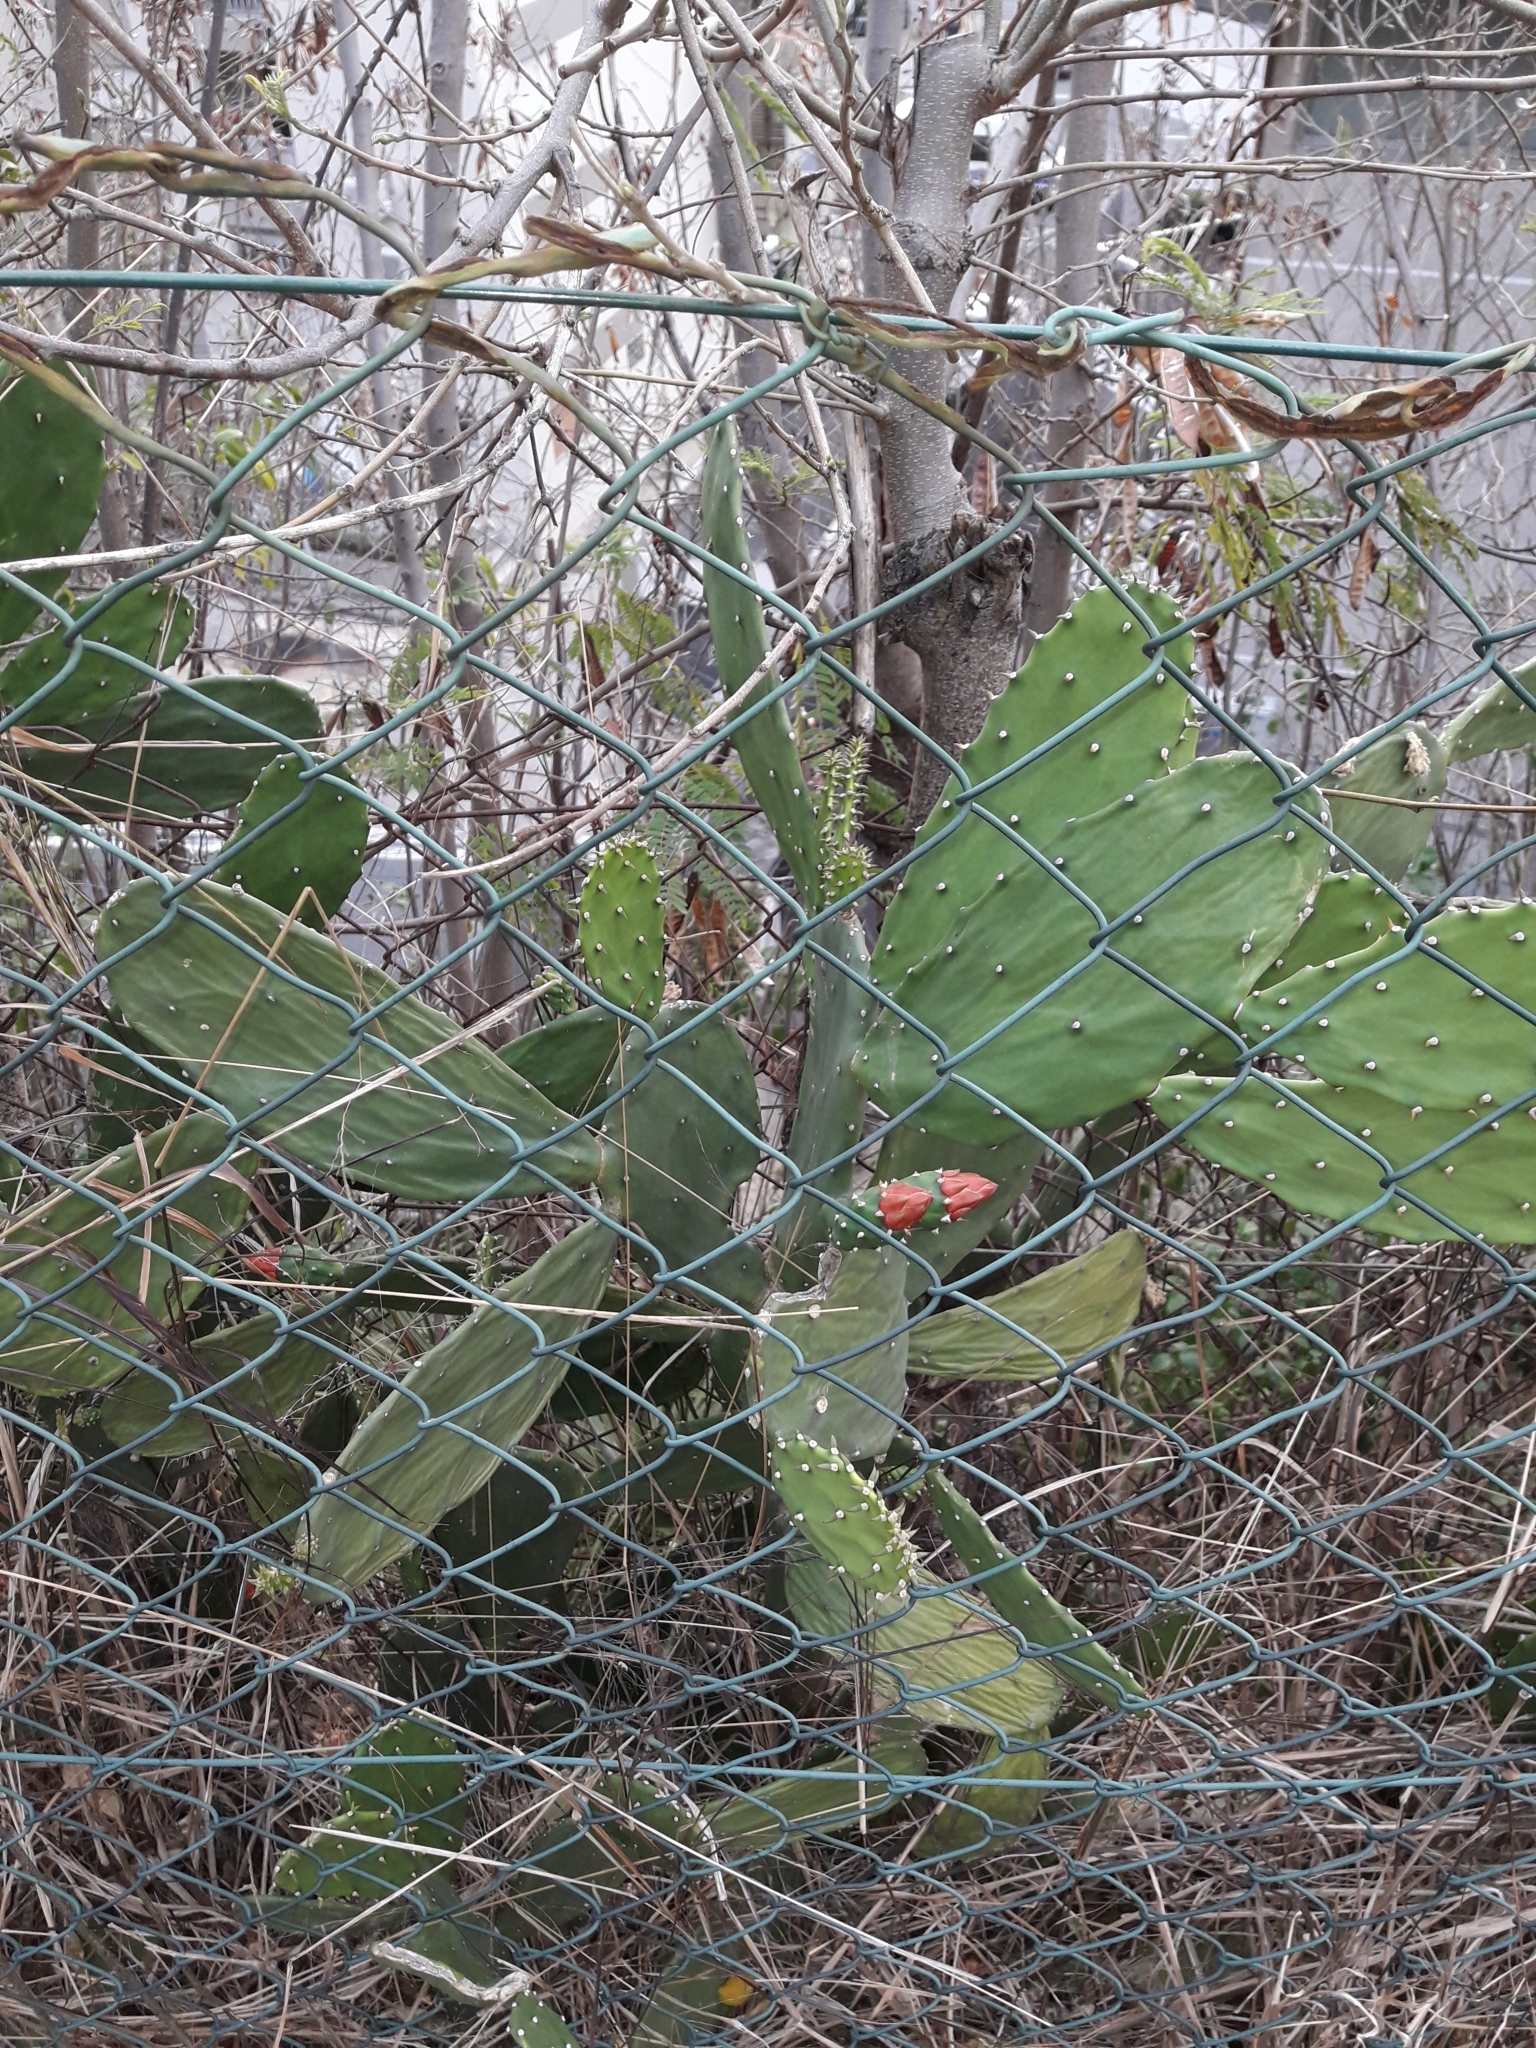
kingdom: Plantae
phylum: Tracheophyta
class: Magnoliopsida
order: Caryophyllales
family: Cactaceae
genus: Opuntia
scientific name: Opuntia cochenillifera
